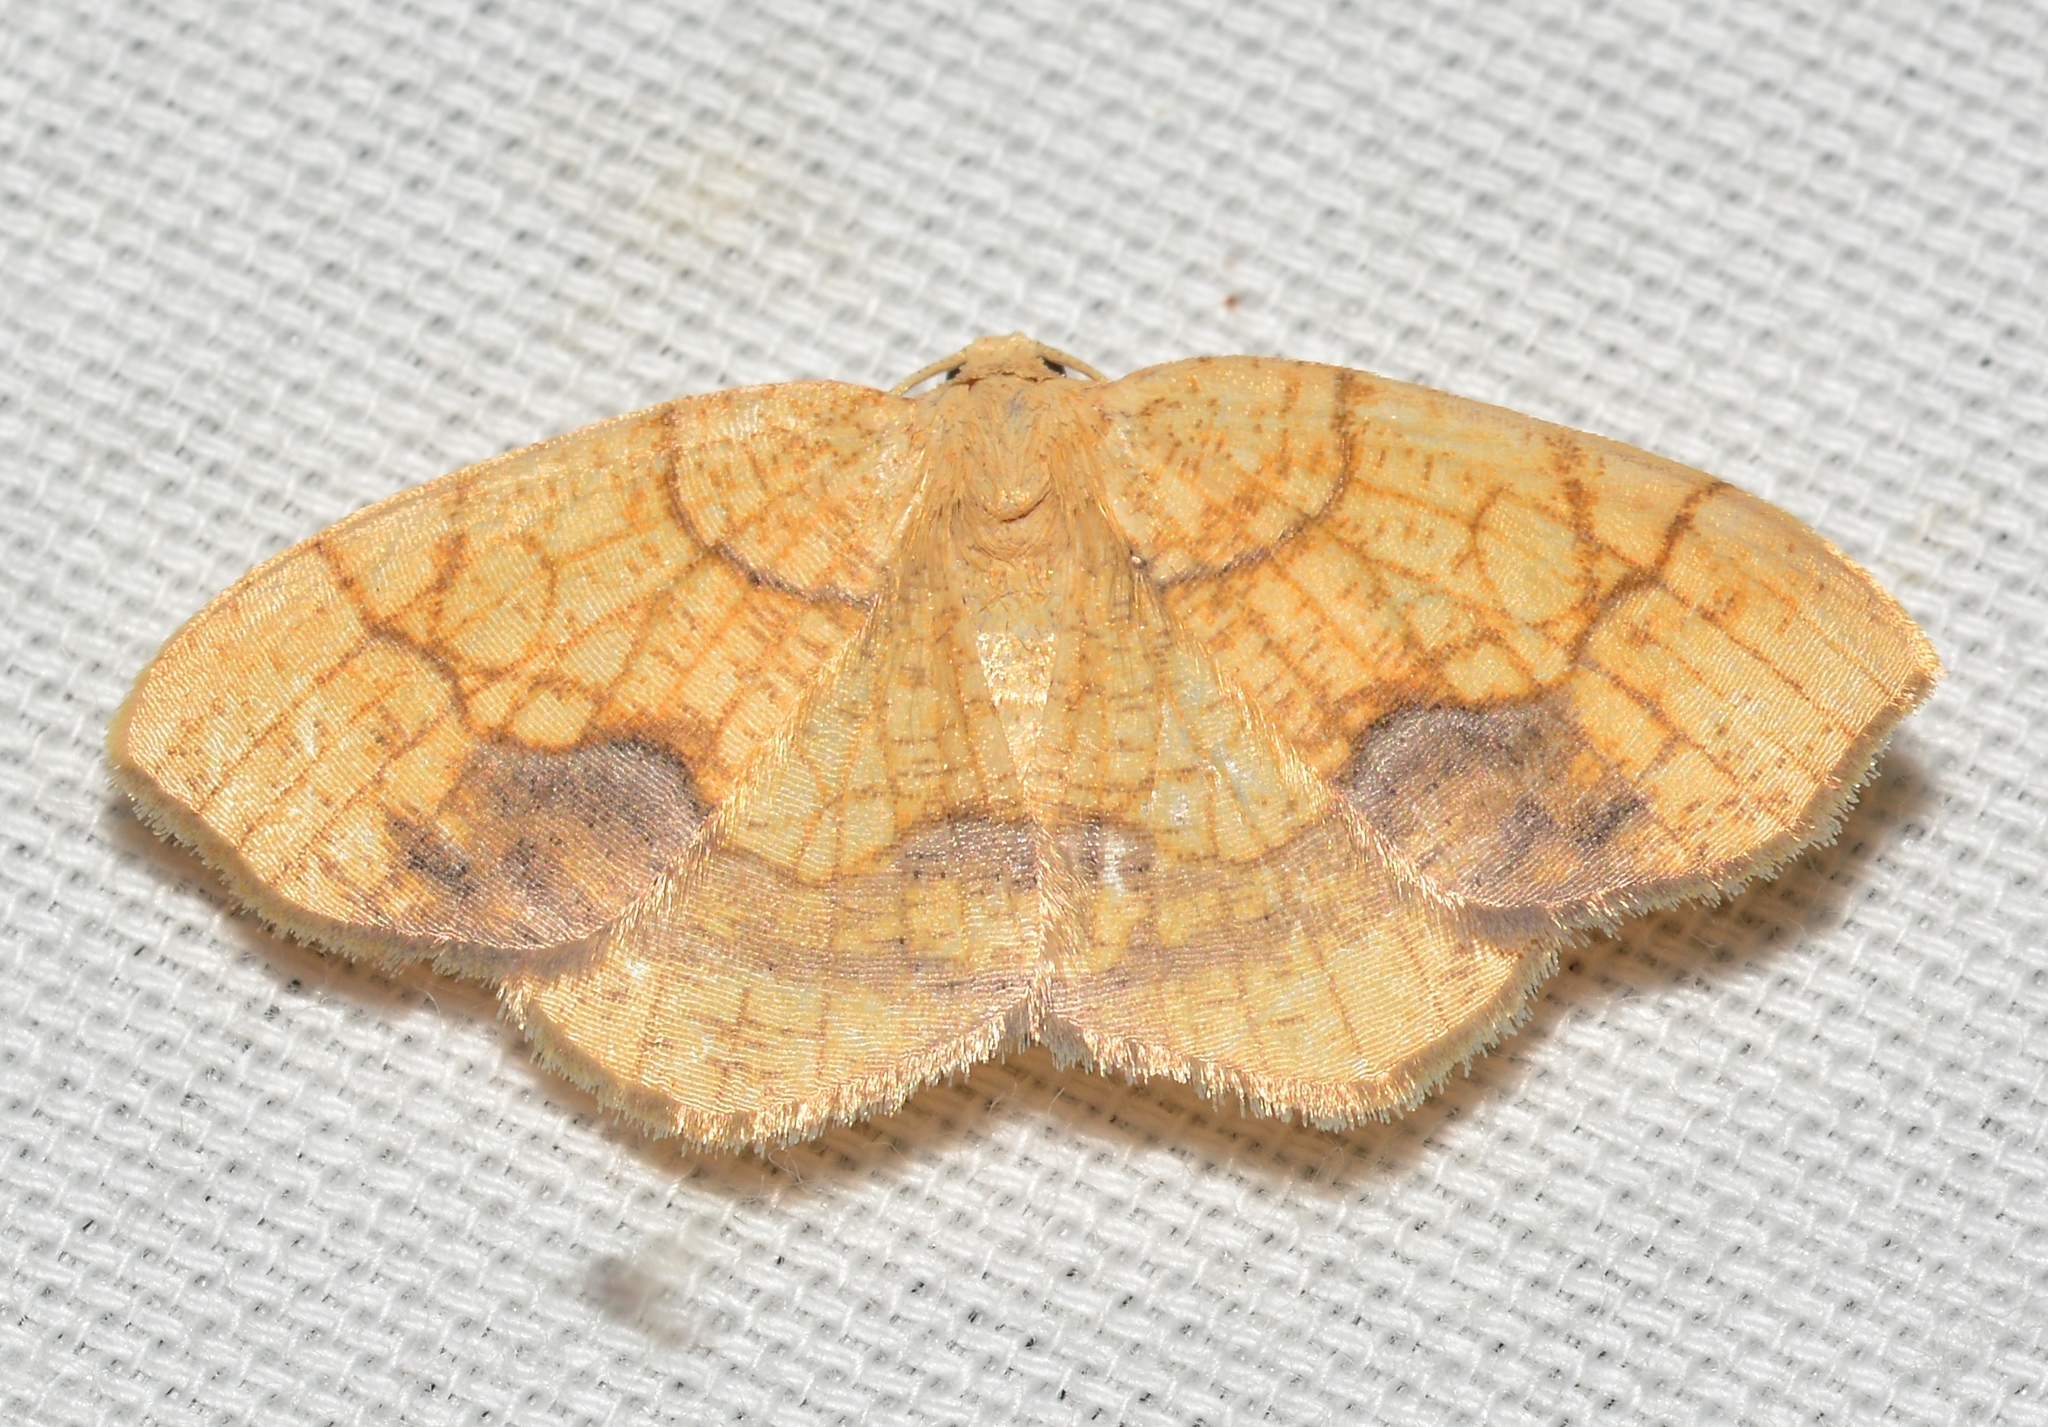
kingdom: Animalia
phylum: Arthropoda
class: Insecta
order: Lepidoptera
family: Geometridae
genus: Nematocampa
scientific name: Nematocampa resistaria
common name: Horned spanworm moth
